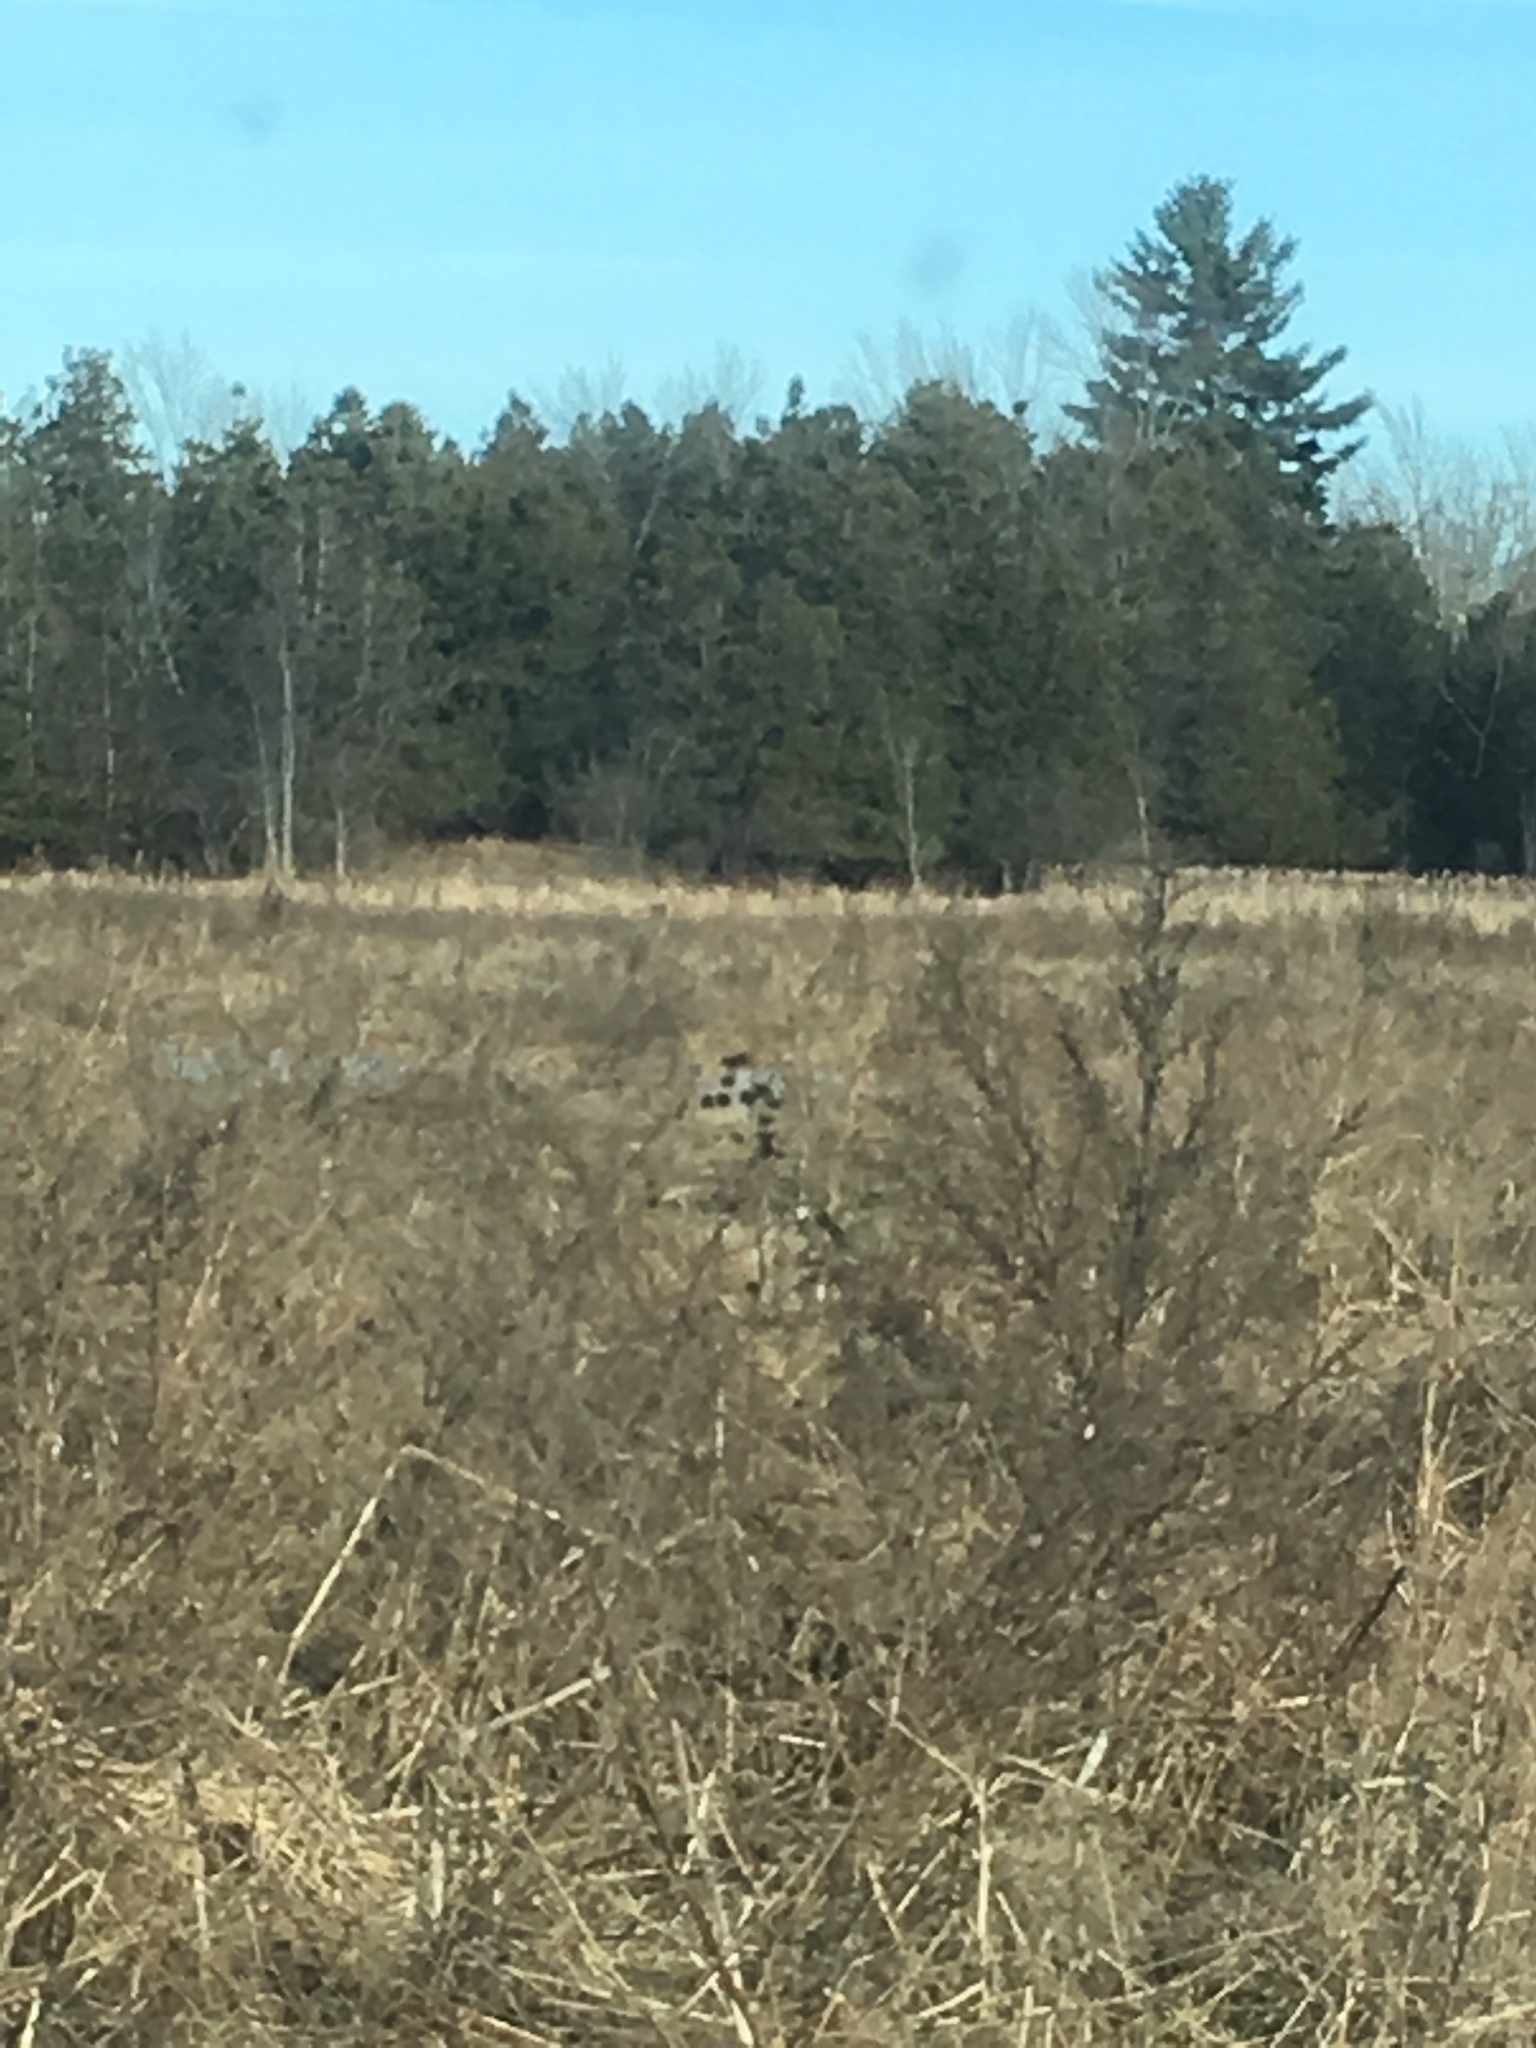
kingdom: Plantae
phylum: Tracheophyta
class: Pinopsida
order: Pinales
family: Pinaceae
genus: Pinus
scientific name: Pinus strobus
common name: Weymouth pine
